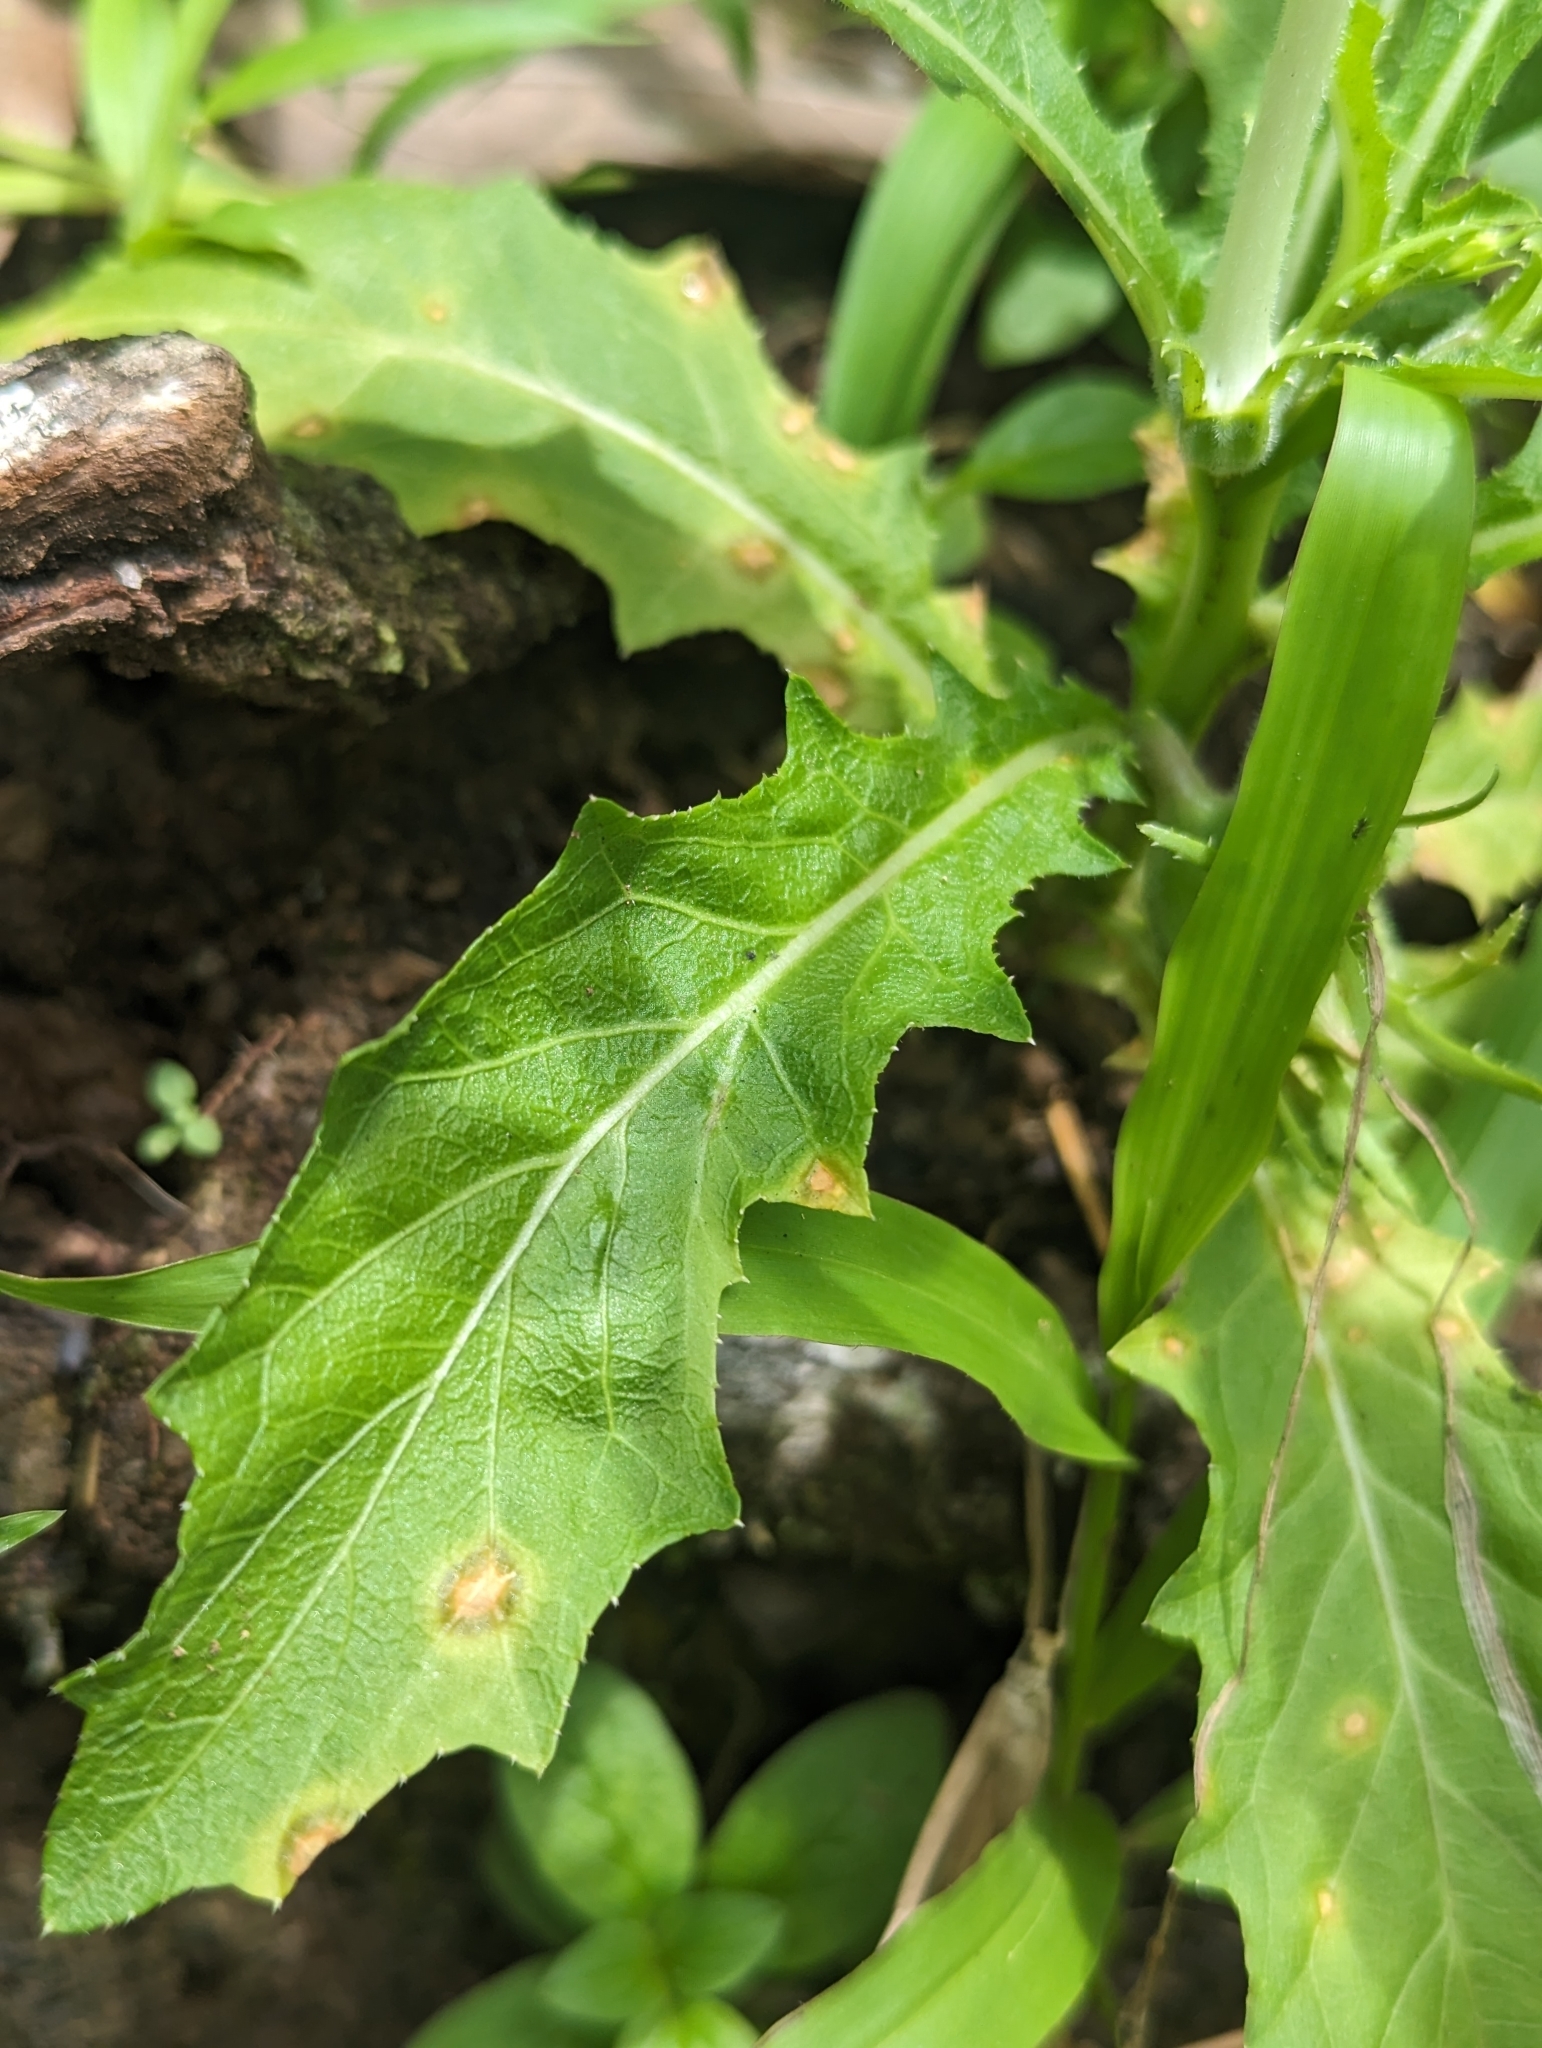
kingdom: Plantae
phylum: Tracheophyta
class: Magnoliopsida
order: Asterales
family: Campanulaceae
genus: Hippobroma
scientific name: Hippobroma longiflora
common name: Madamfate
